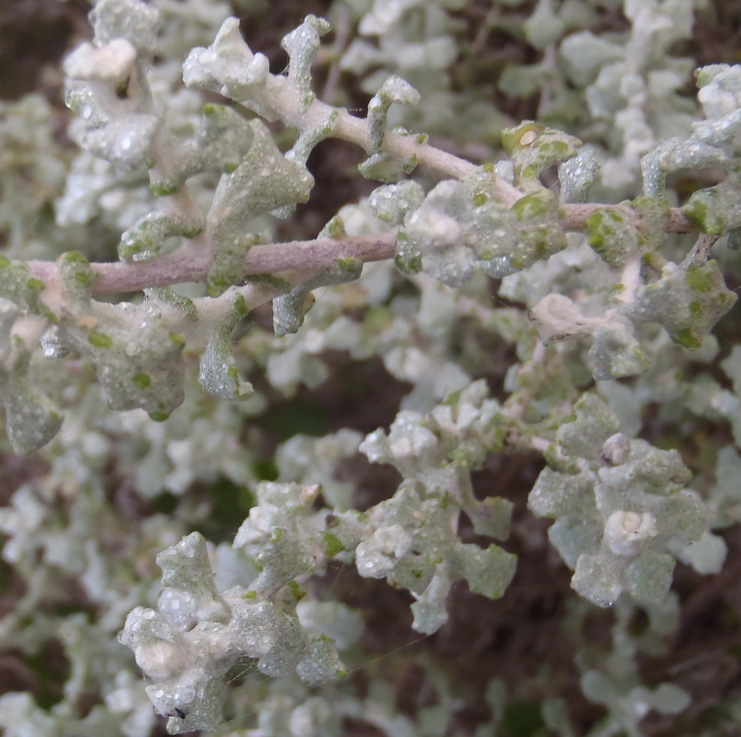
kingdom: Plantae
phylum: Tracheophyta
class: Magnoliopsida
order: Asterales
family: Asteraceae
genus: Helichrysum
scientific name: Helichrysum patulum
